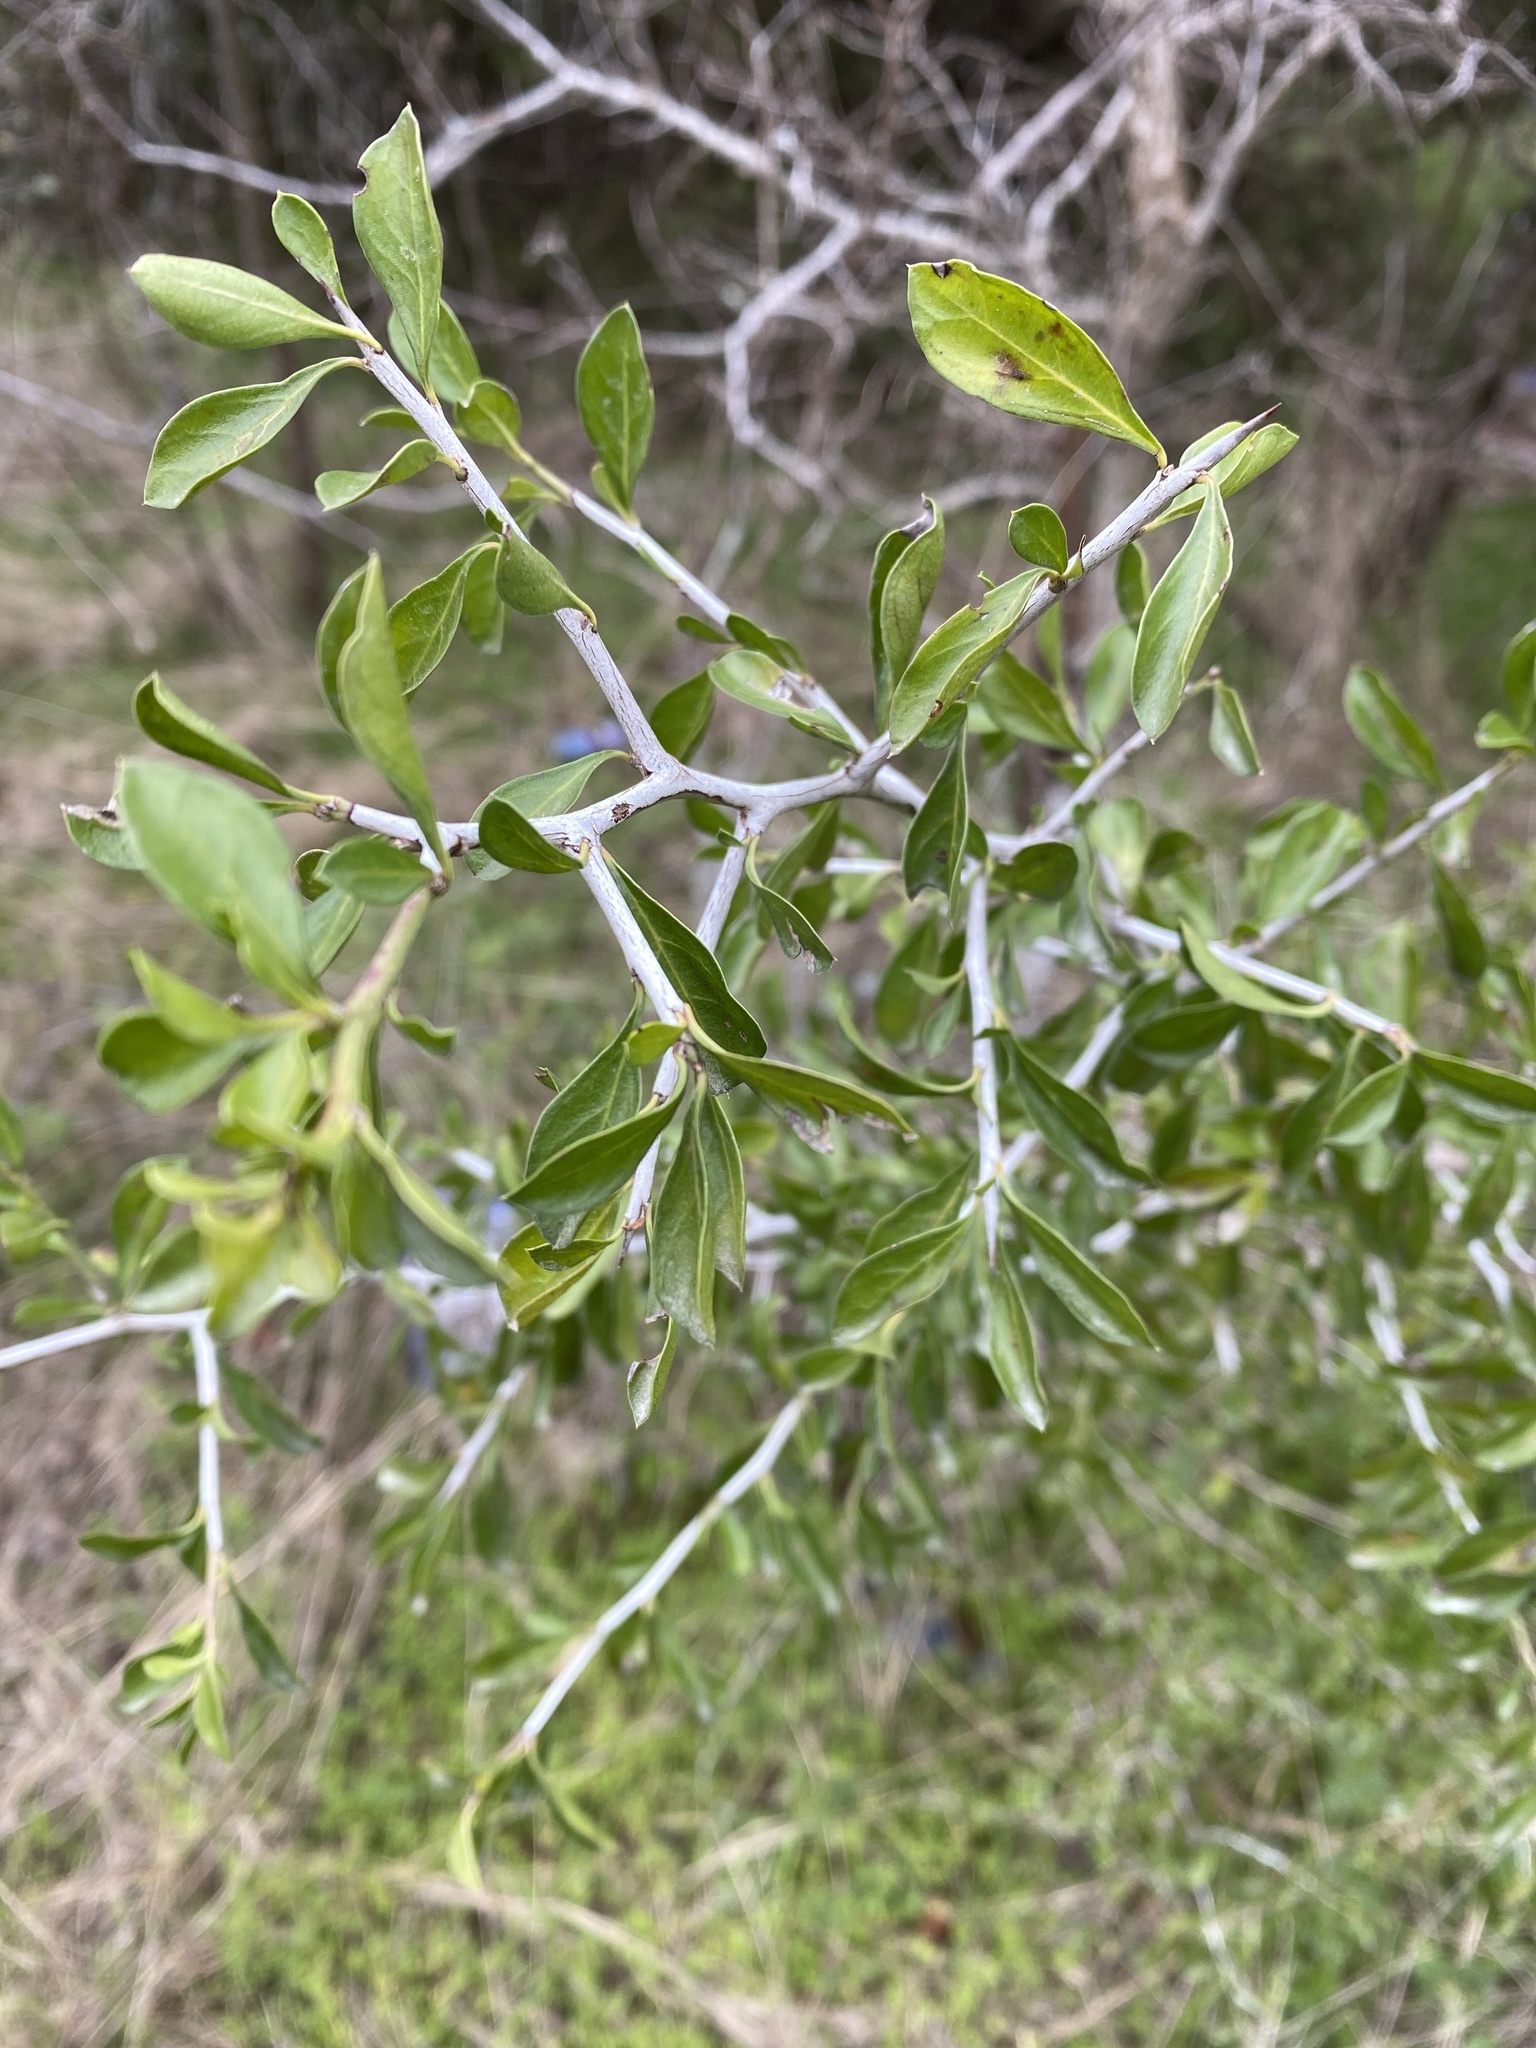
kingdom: Plantae
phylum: Tracheophyta
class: Magnoliopsida
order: Rosales
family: Rhamnaceae
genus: Condalia
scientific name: Condalia hookeri
